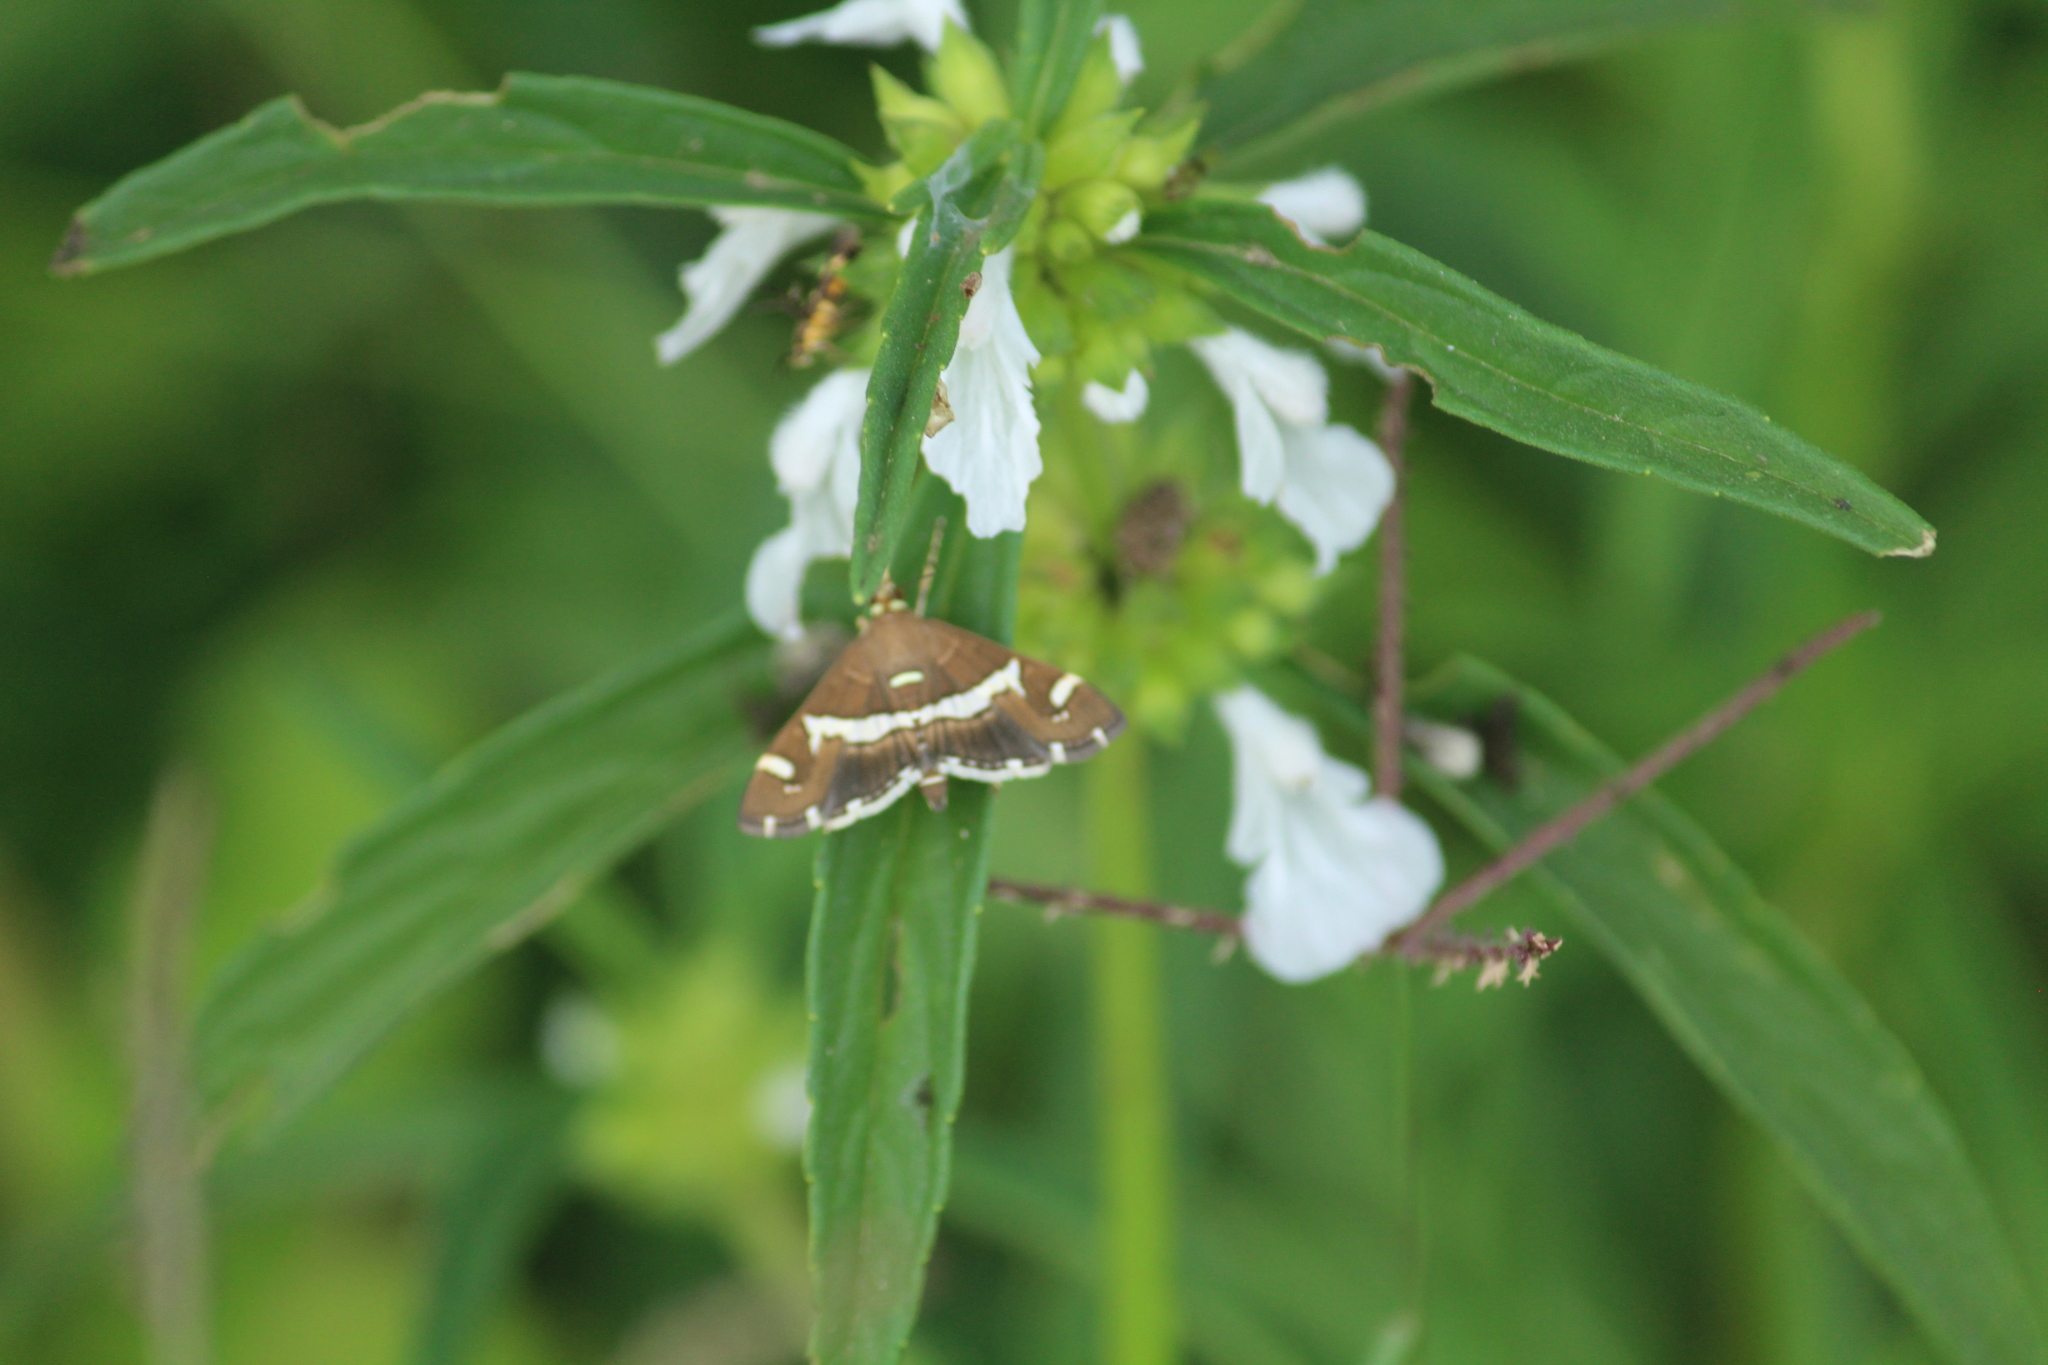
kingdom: Animalia
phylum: Arthropoda
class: Insecta
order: Lepidoptera
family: Crambidae
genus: Spoladea
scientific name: Spoladea recurvalis
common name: Beet webworm moth
